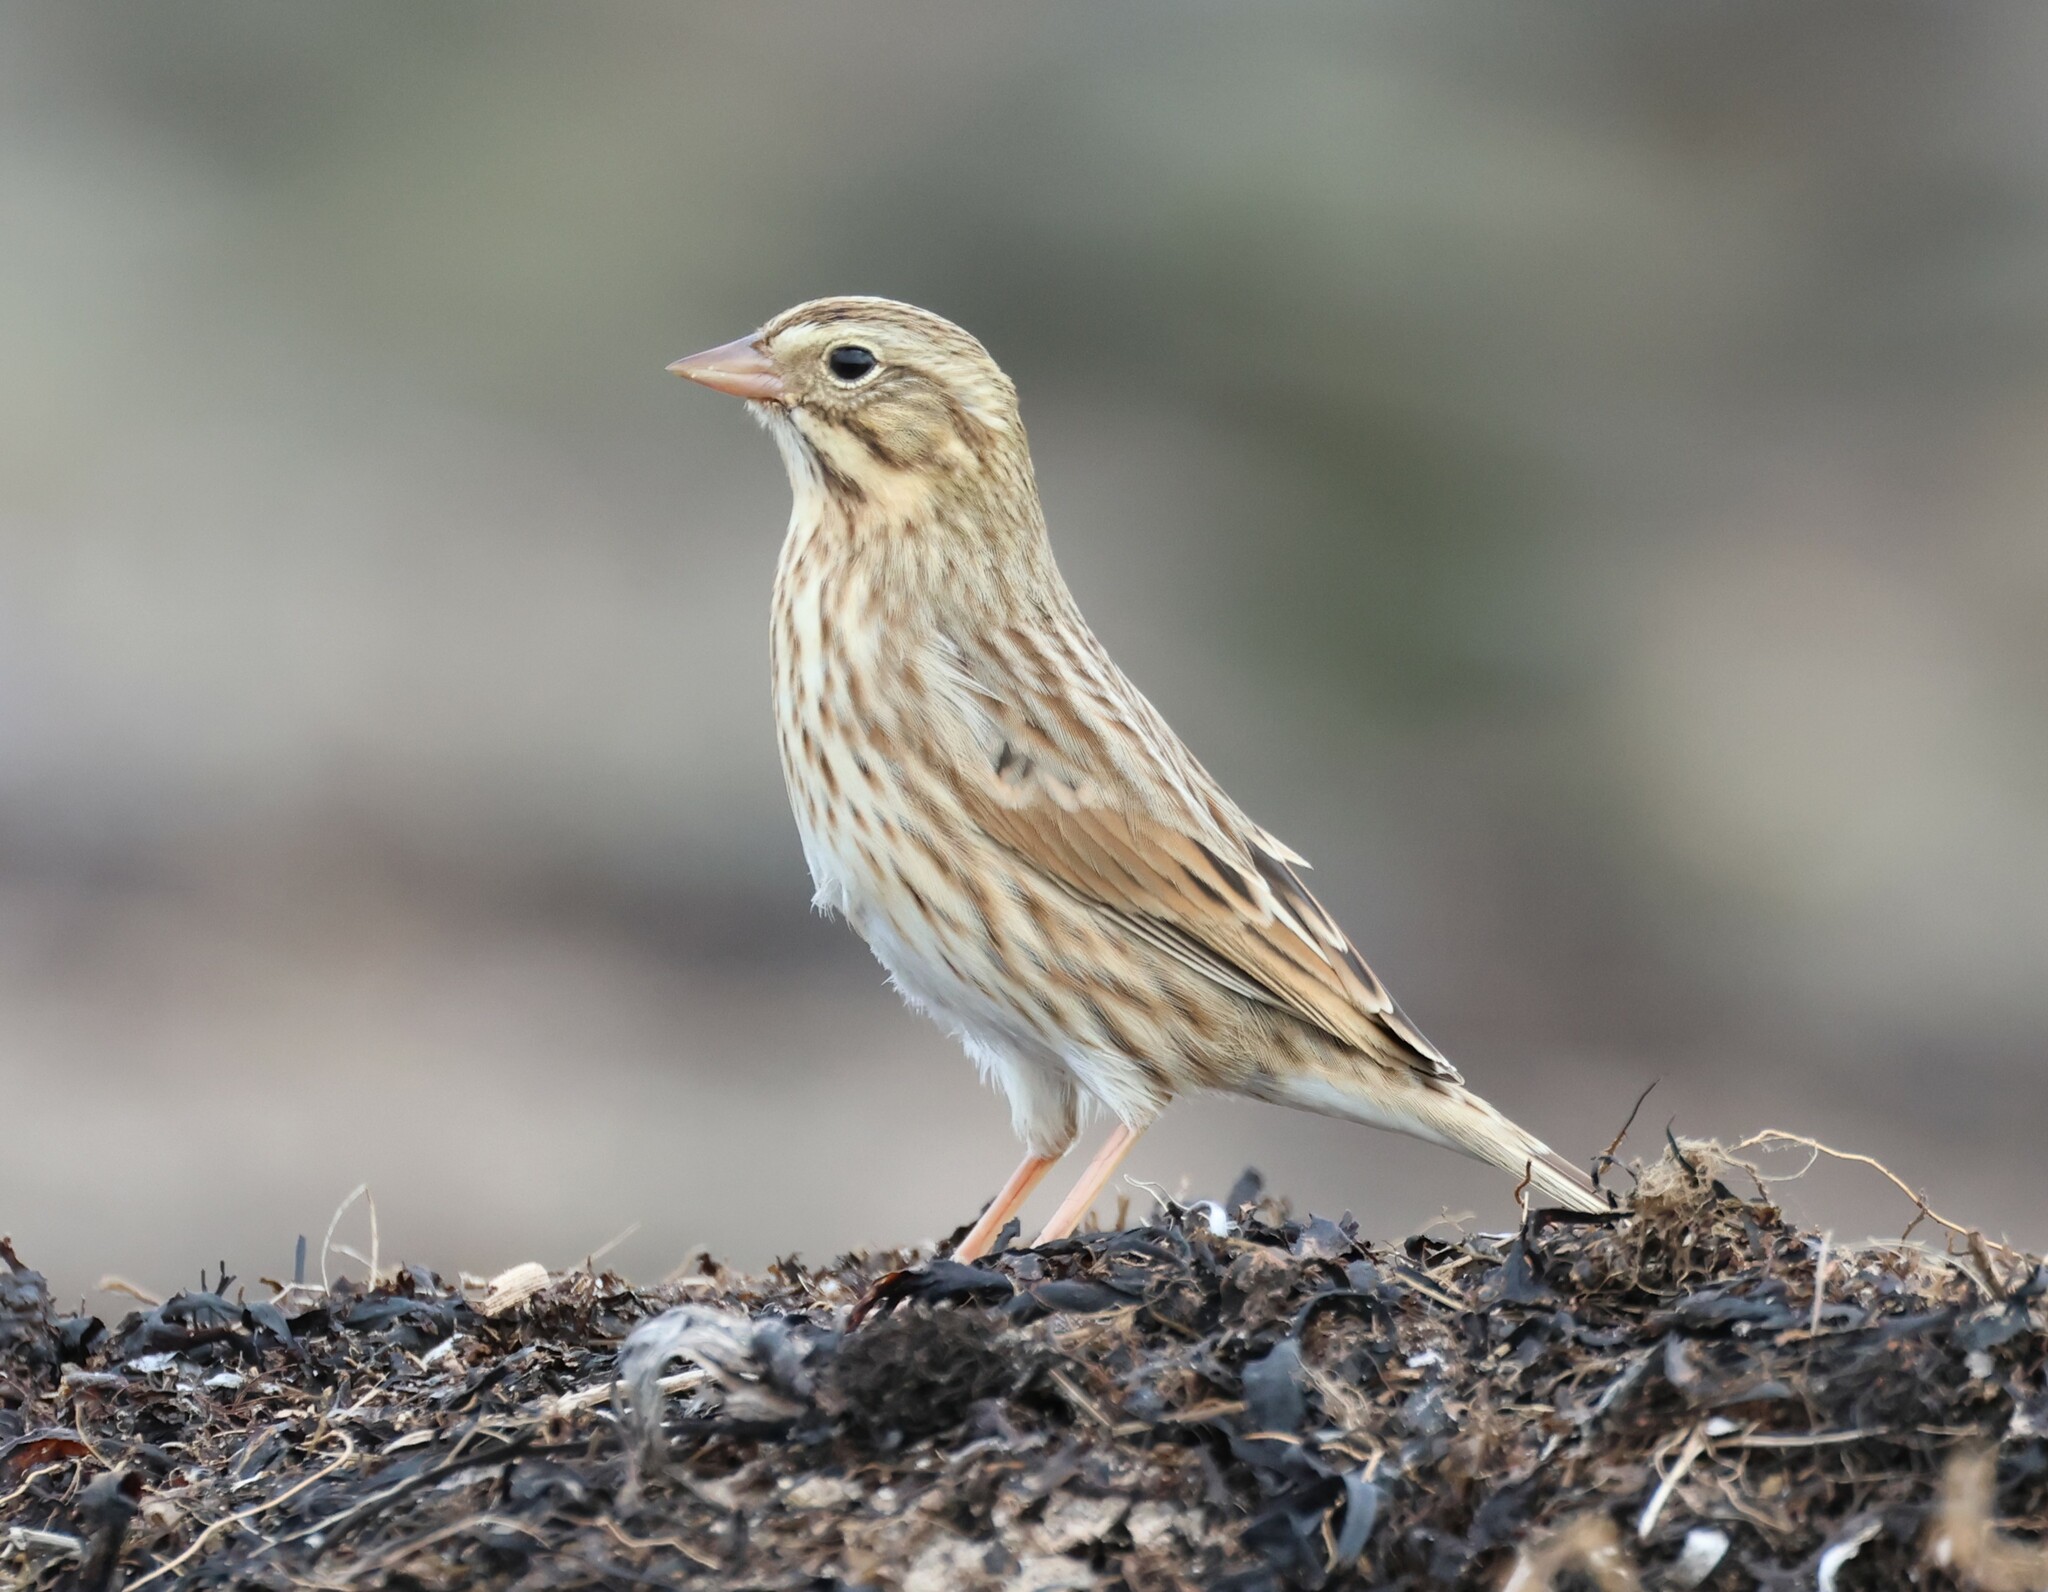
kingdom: Animalia
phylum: Chordata
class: Aves
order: Passeriformes
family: Passerellidae
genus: Passerculus
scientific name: Passerculus sandwichensis
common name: Savannah sparrow
